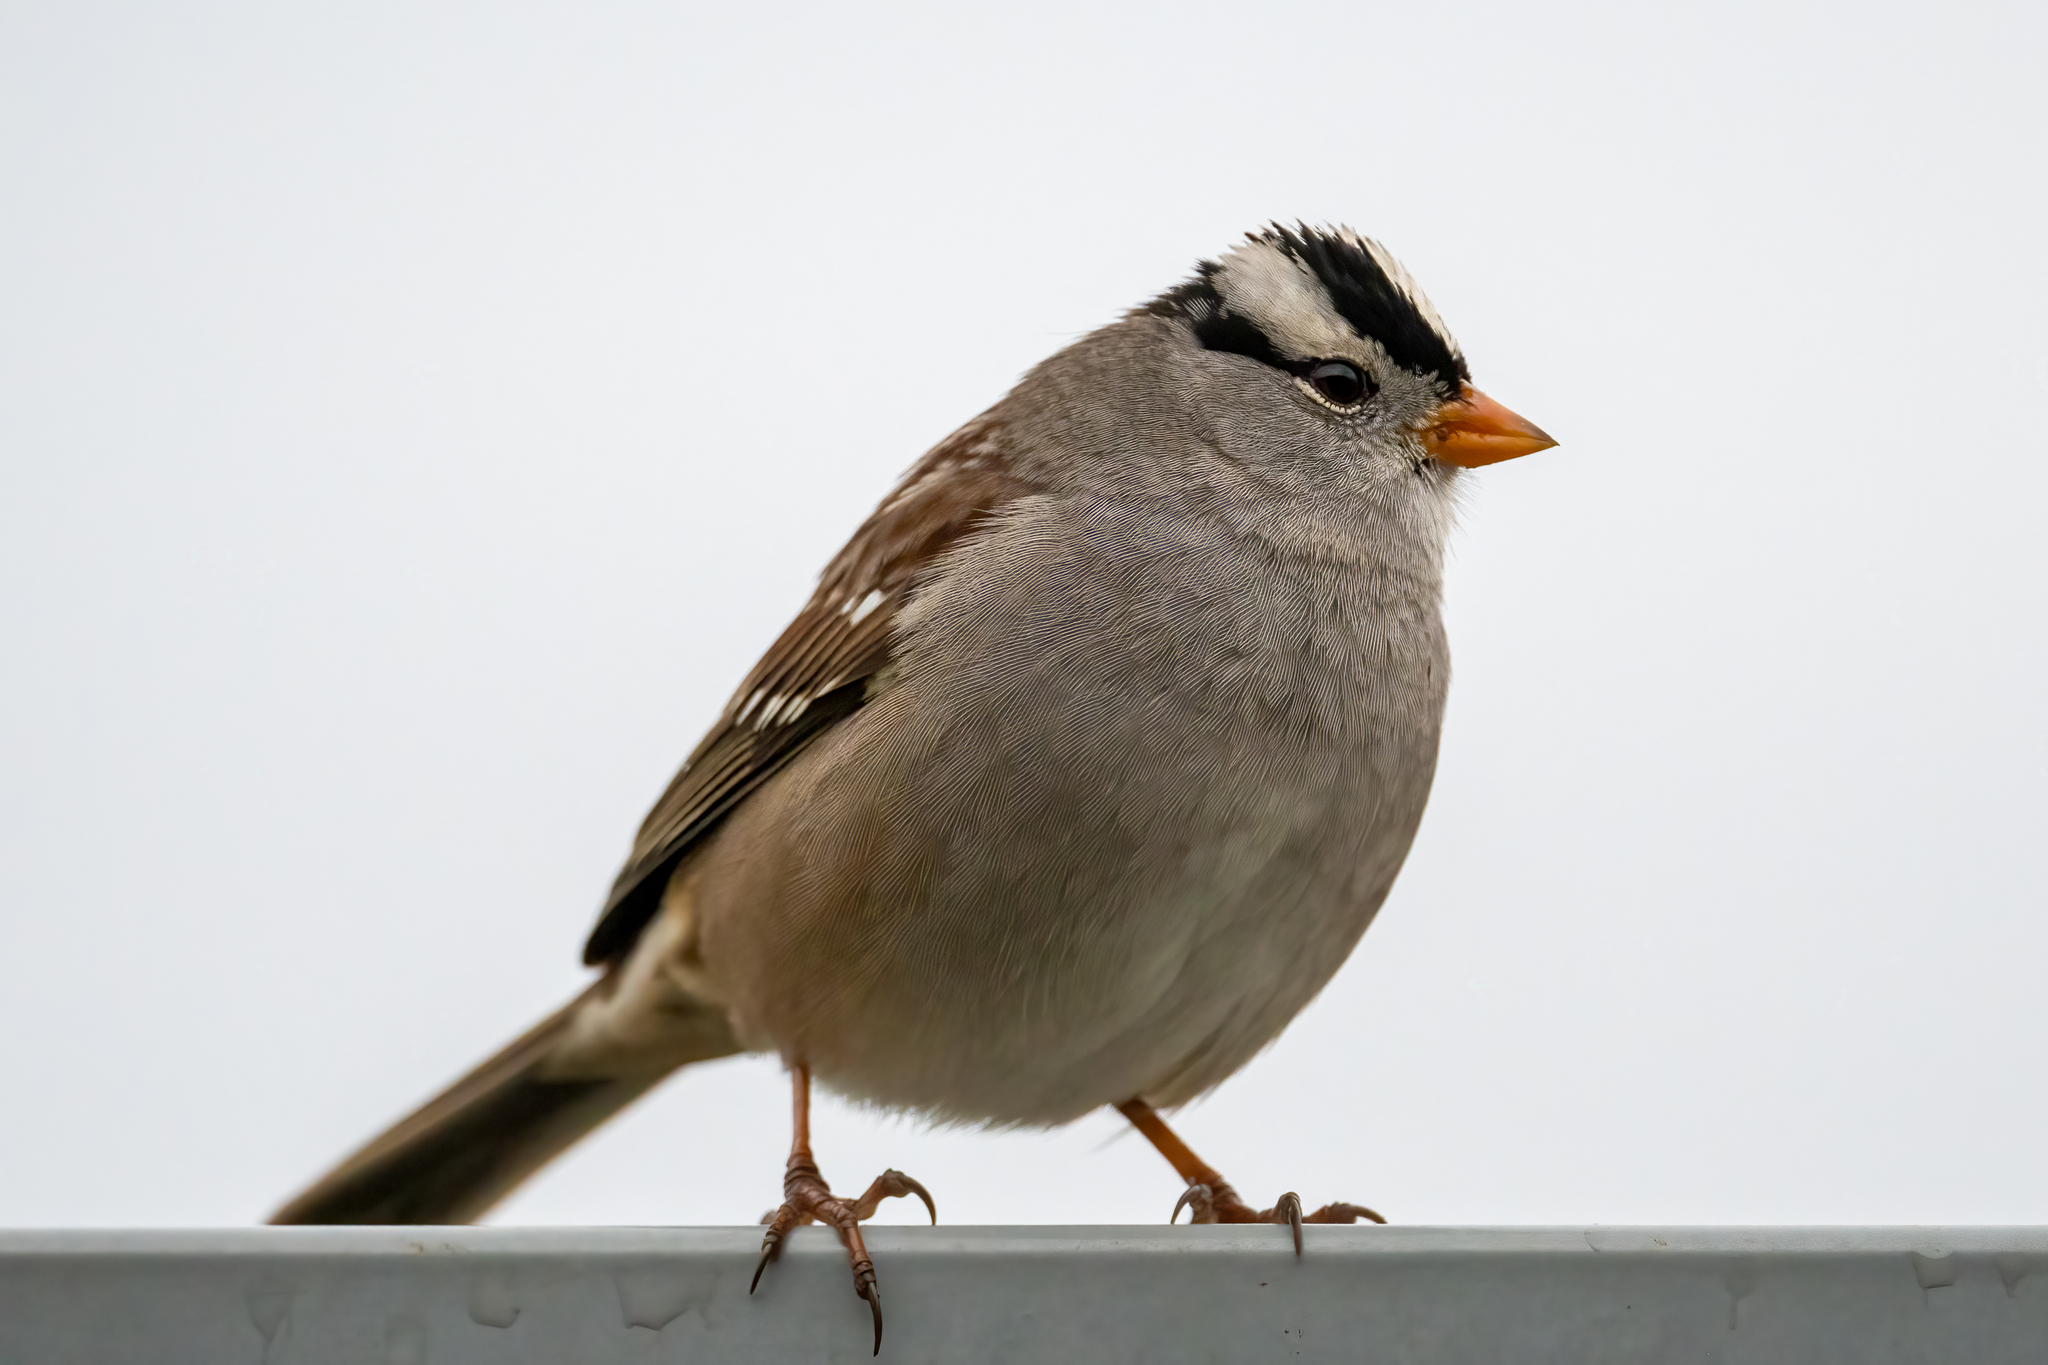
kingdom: Animalia
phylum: Chordata
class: Aves
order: Passeriformes
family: Passerellidae
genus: Zonotrichia
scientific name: Zonotrichia leucophrys
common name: White-crowned sparrow
